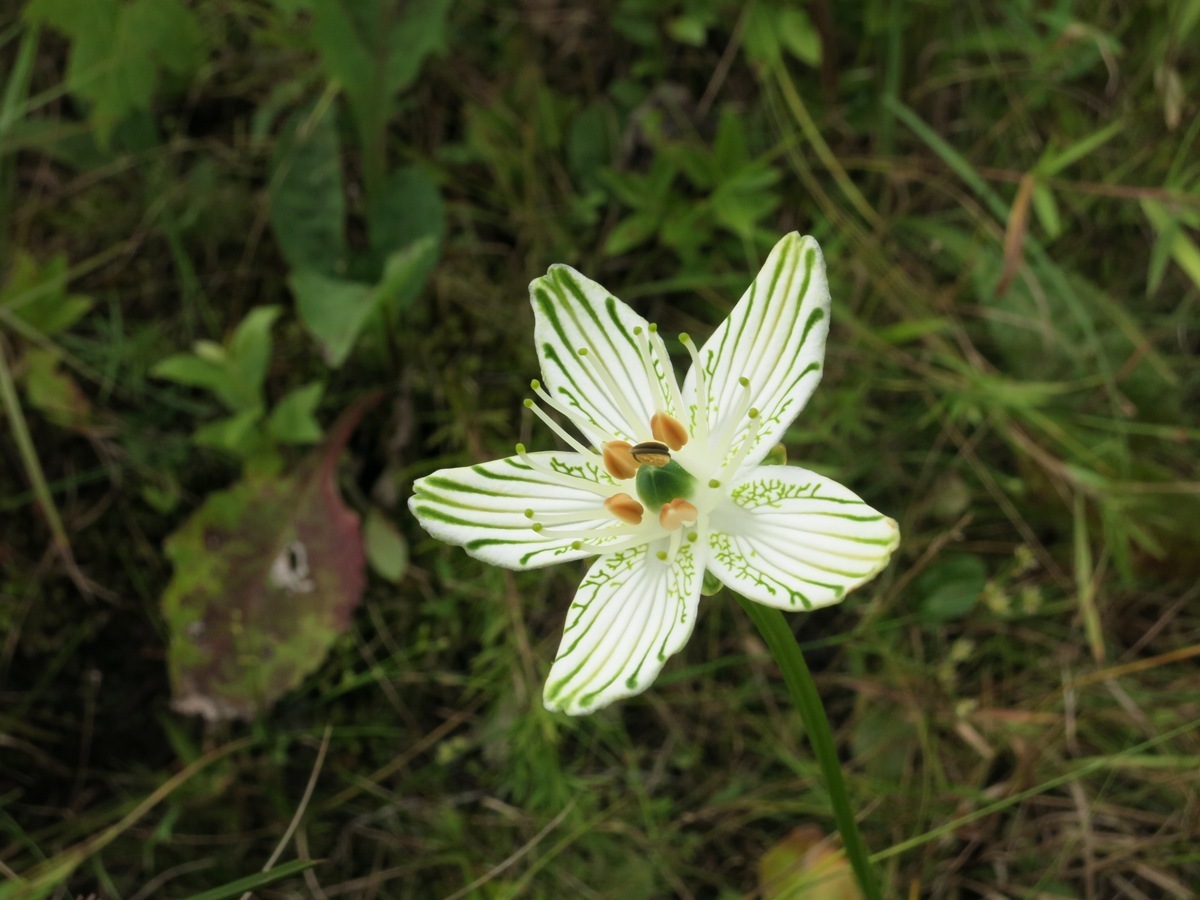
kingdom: Plantae
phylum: Tracheophyta
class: Magnoliopsida
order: Celastrales
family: Parnassiaceae
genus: Parnassia
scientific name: Parnassia grandifolia
